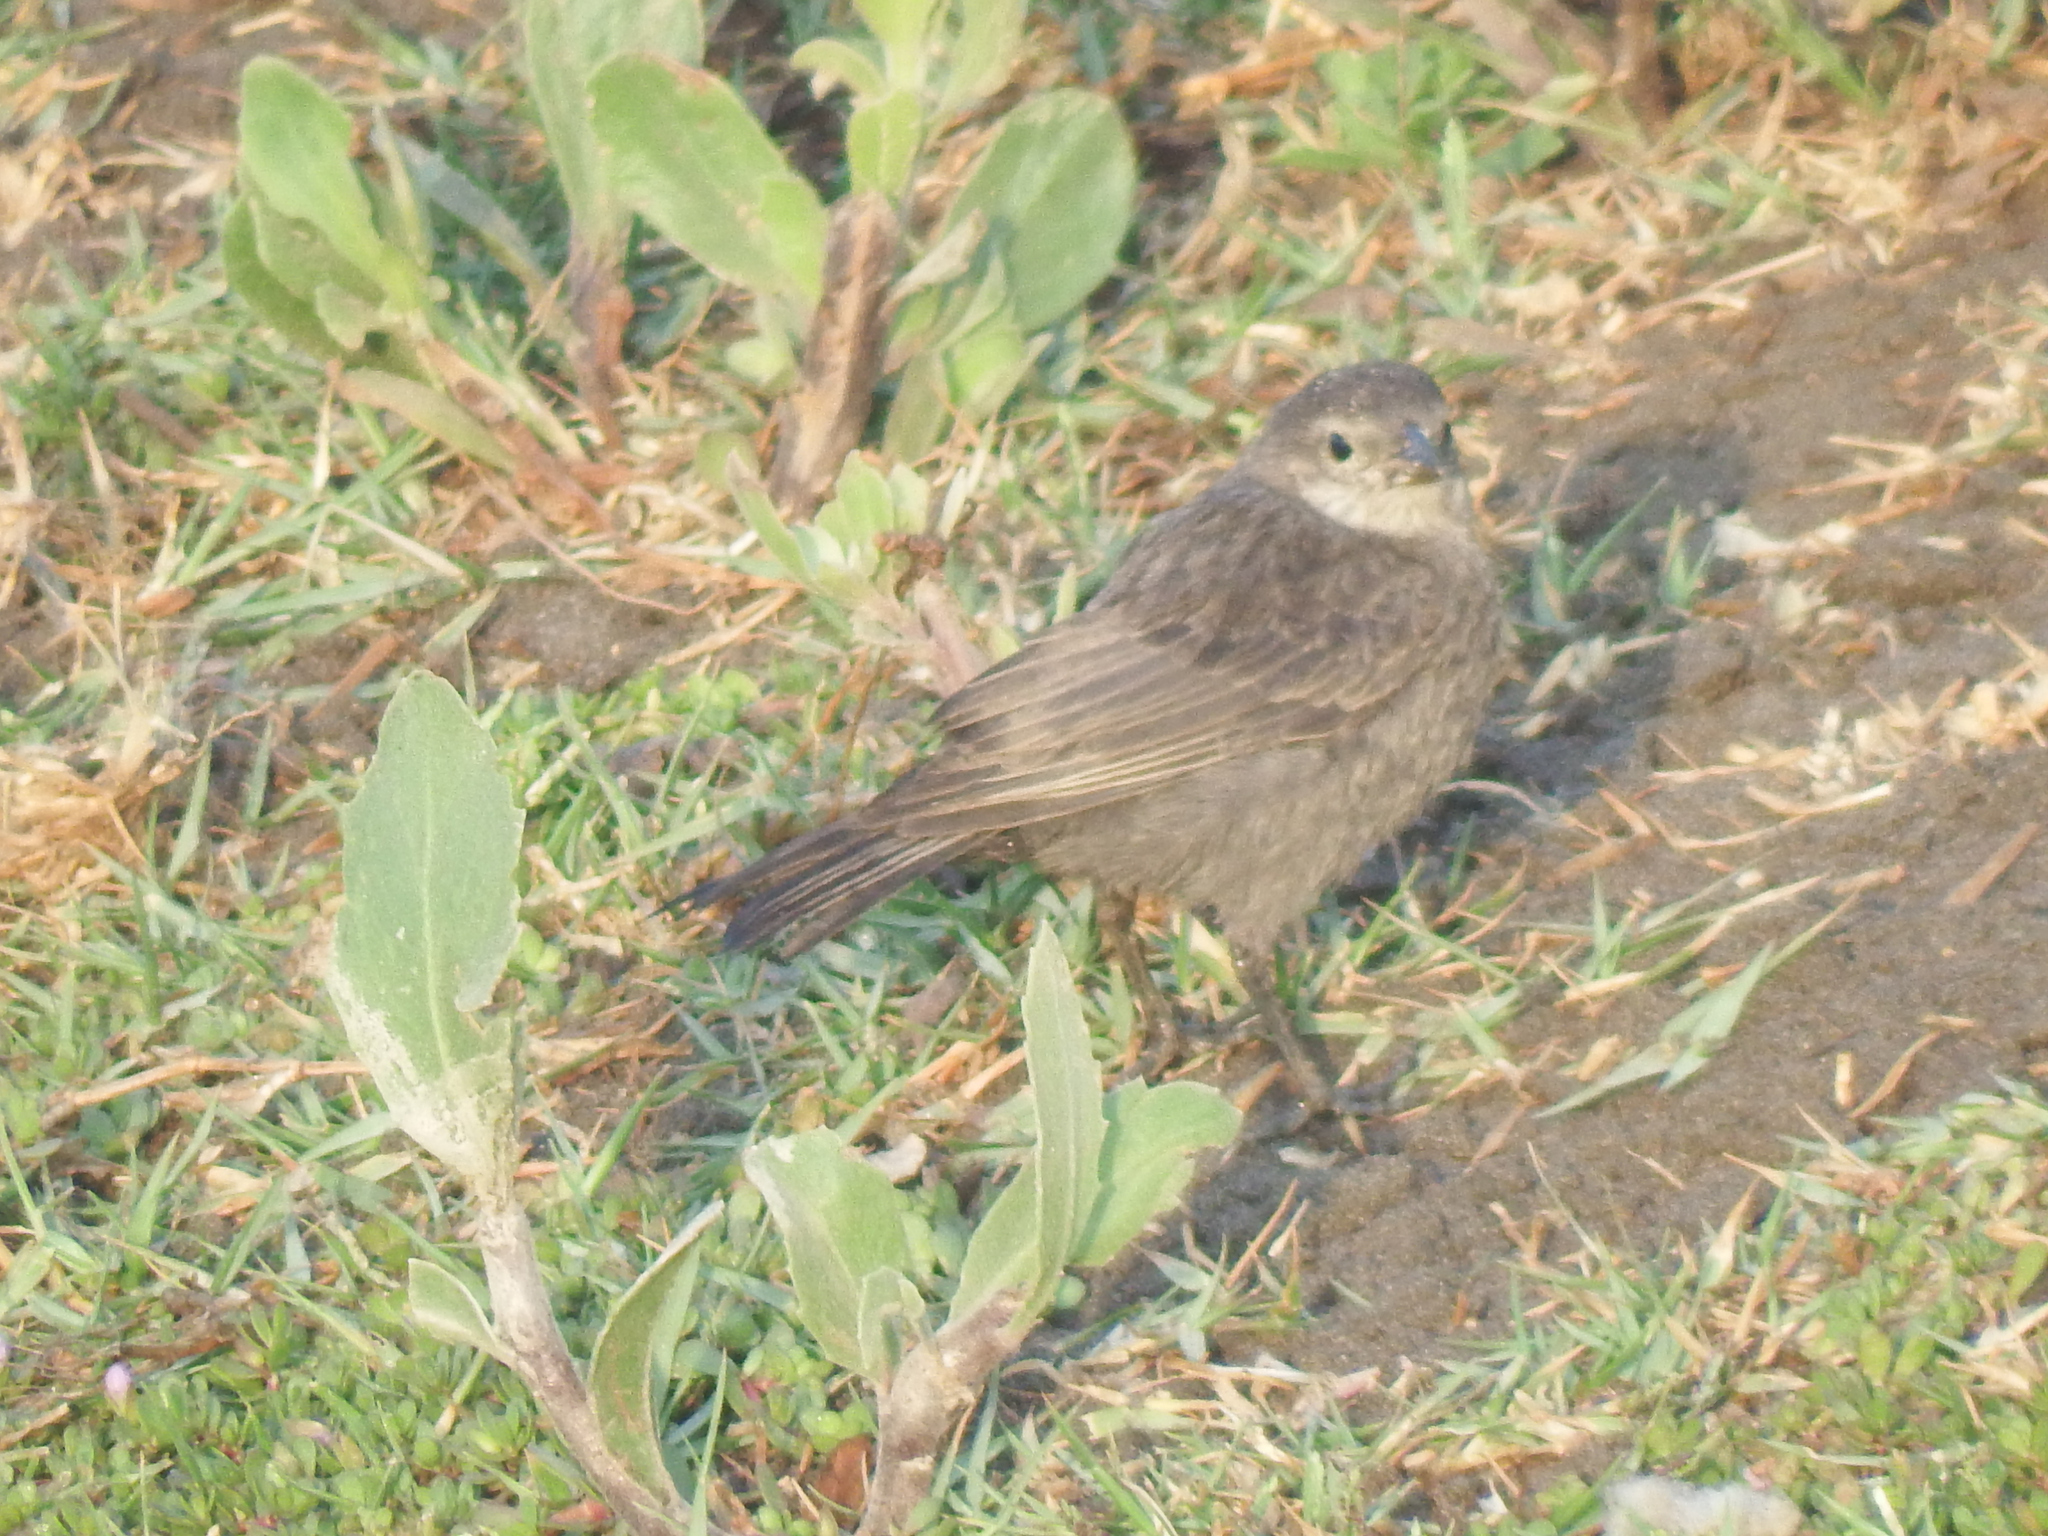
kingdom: Animalia
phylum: Chordata
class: Aves
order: Passeriformes
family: Icteridae
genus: Molothrus
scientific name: Molothrus bonariensis
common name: Shiny cowbird
